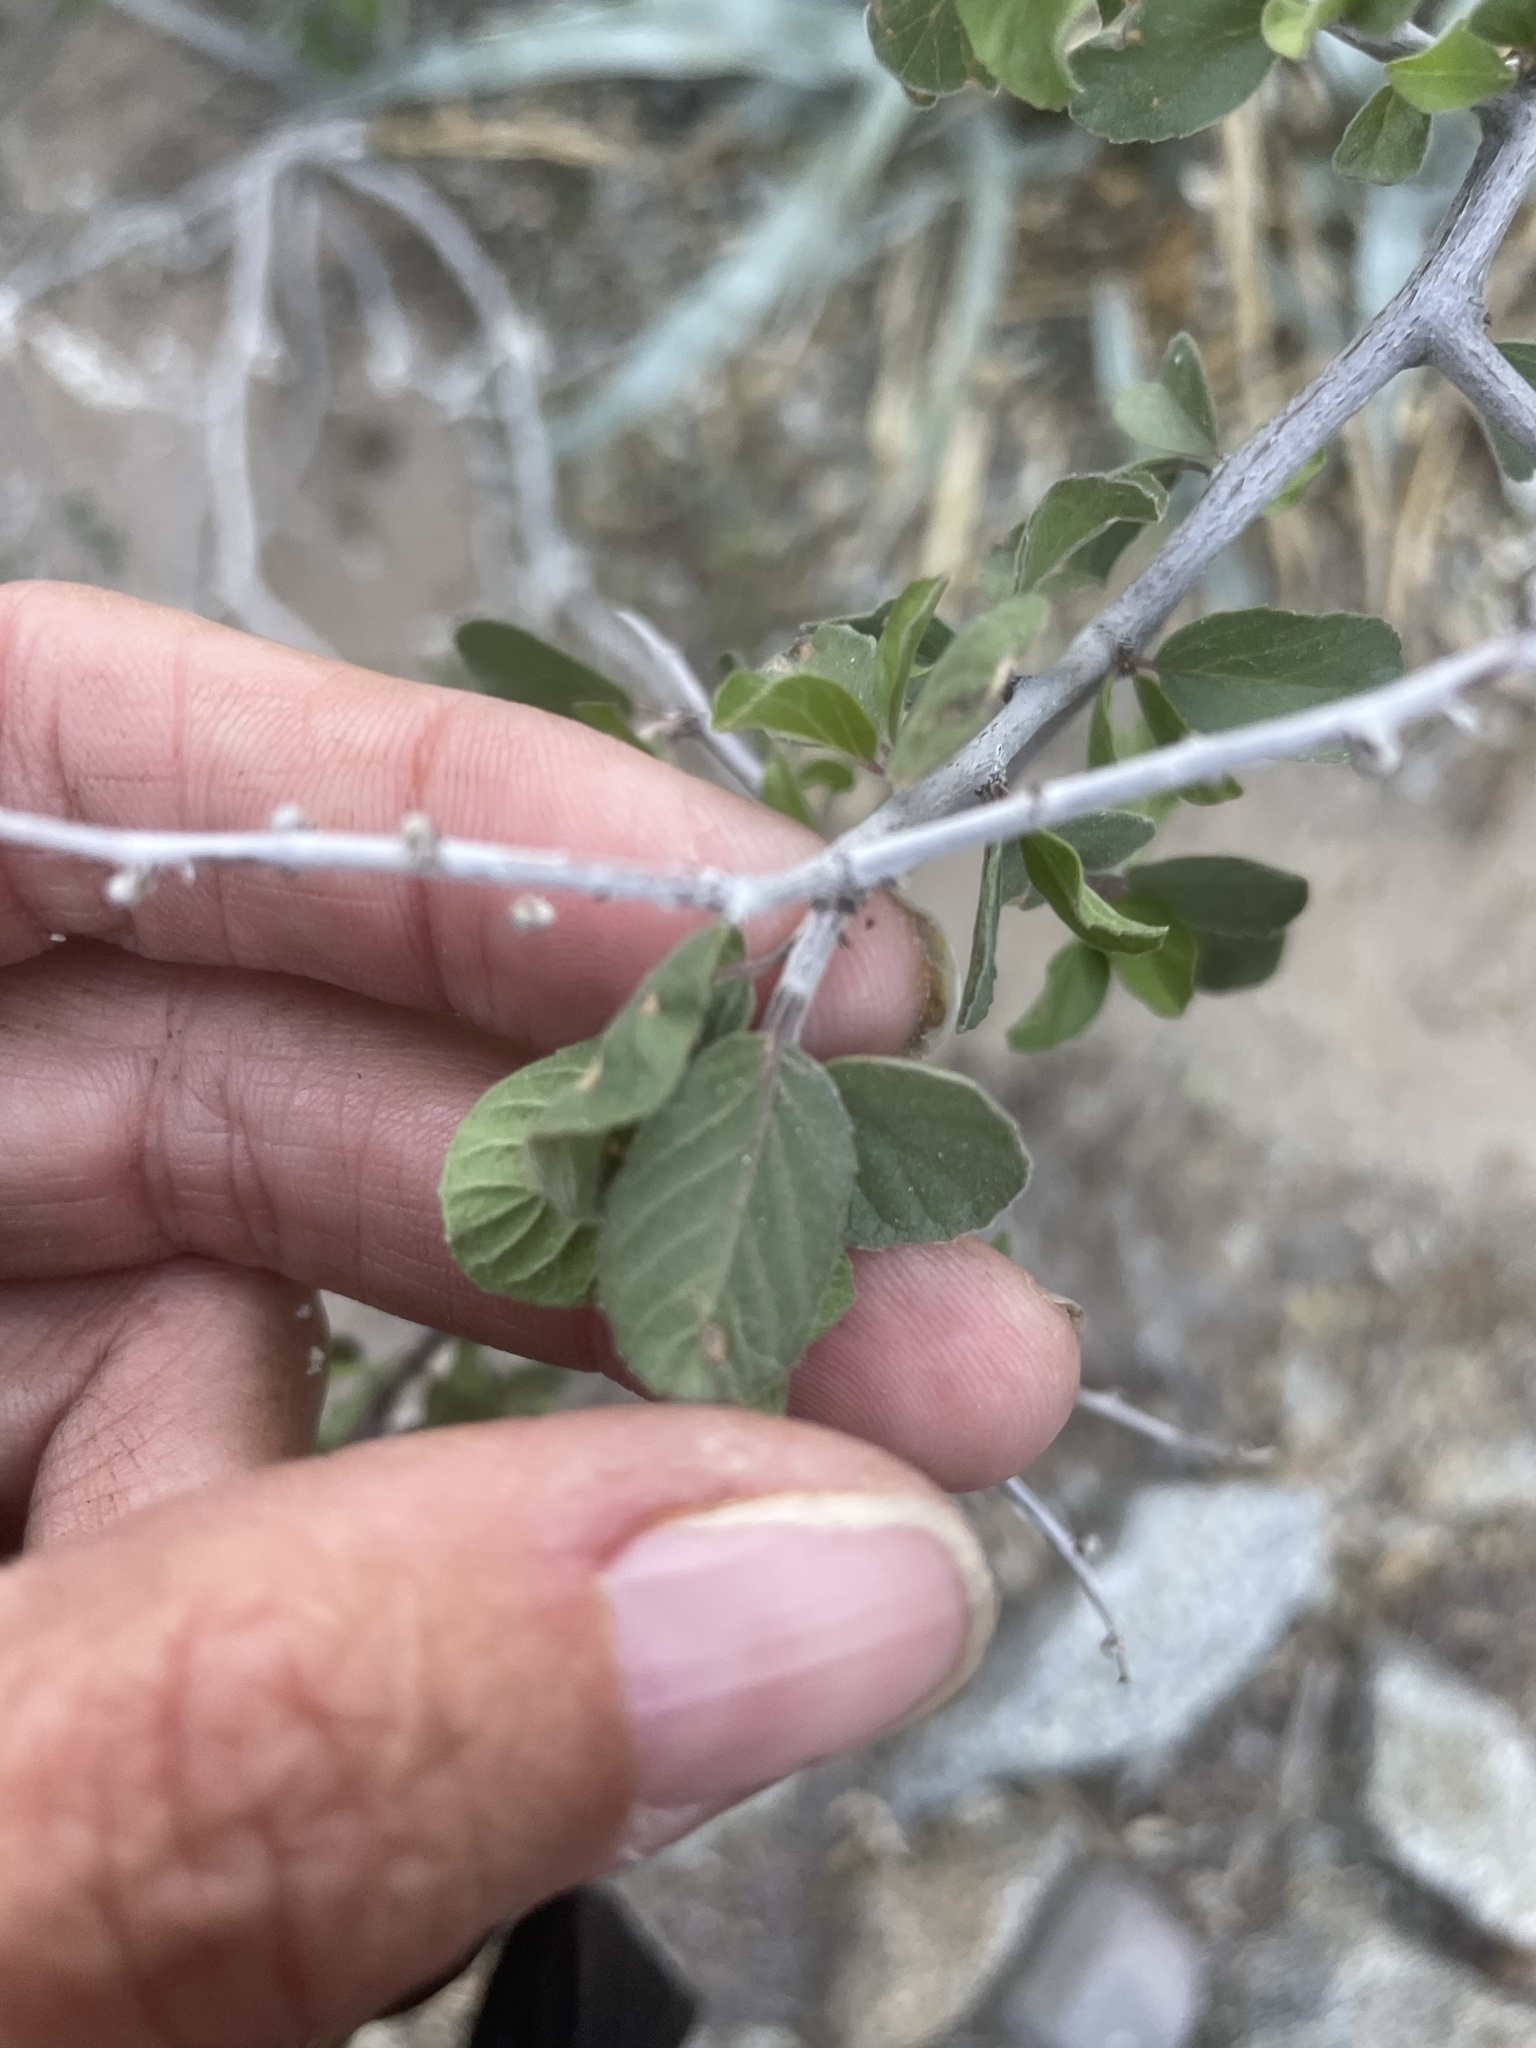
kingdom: Plantae
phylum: Tracheophyta
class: Magnoliopsida
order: Rosales
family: Rhamnaceae
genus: Colubrina
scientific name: Colubrina californica
